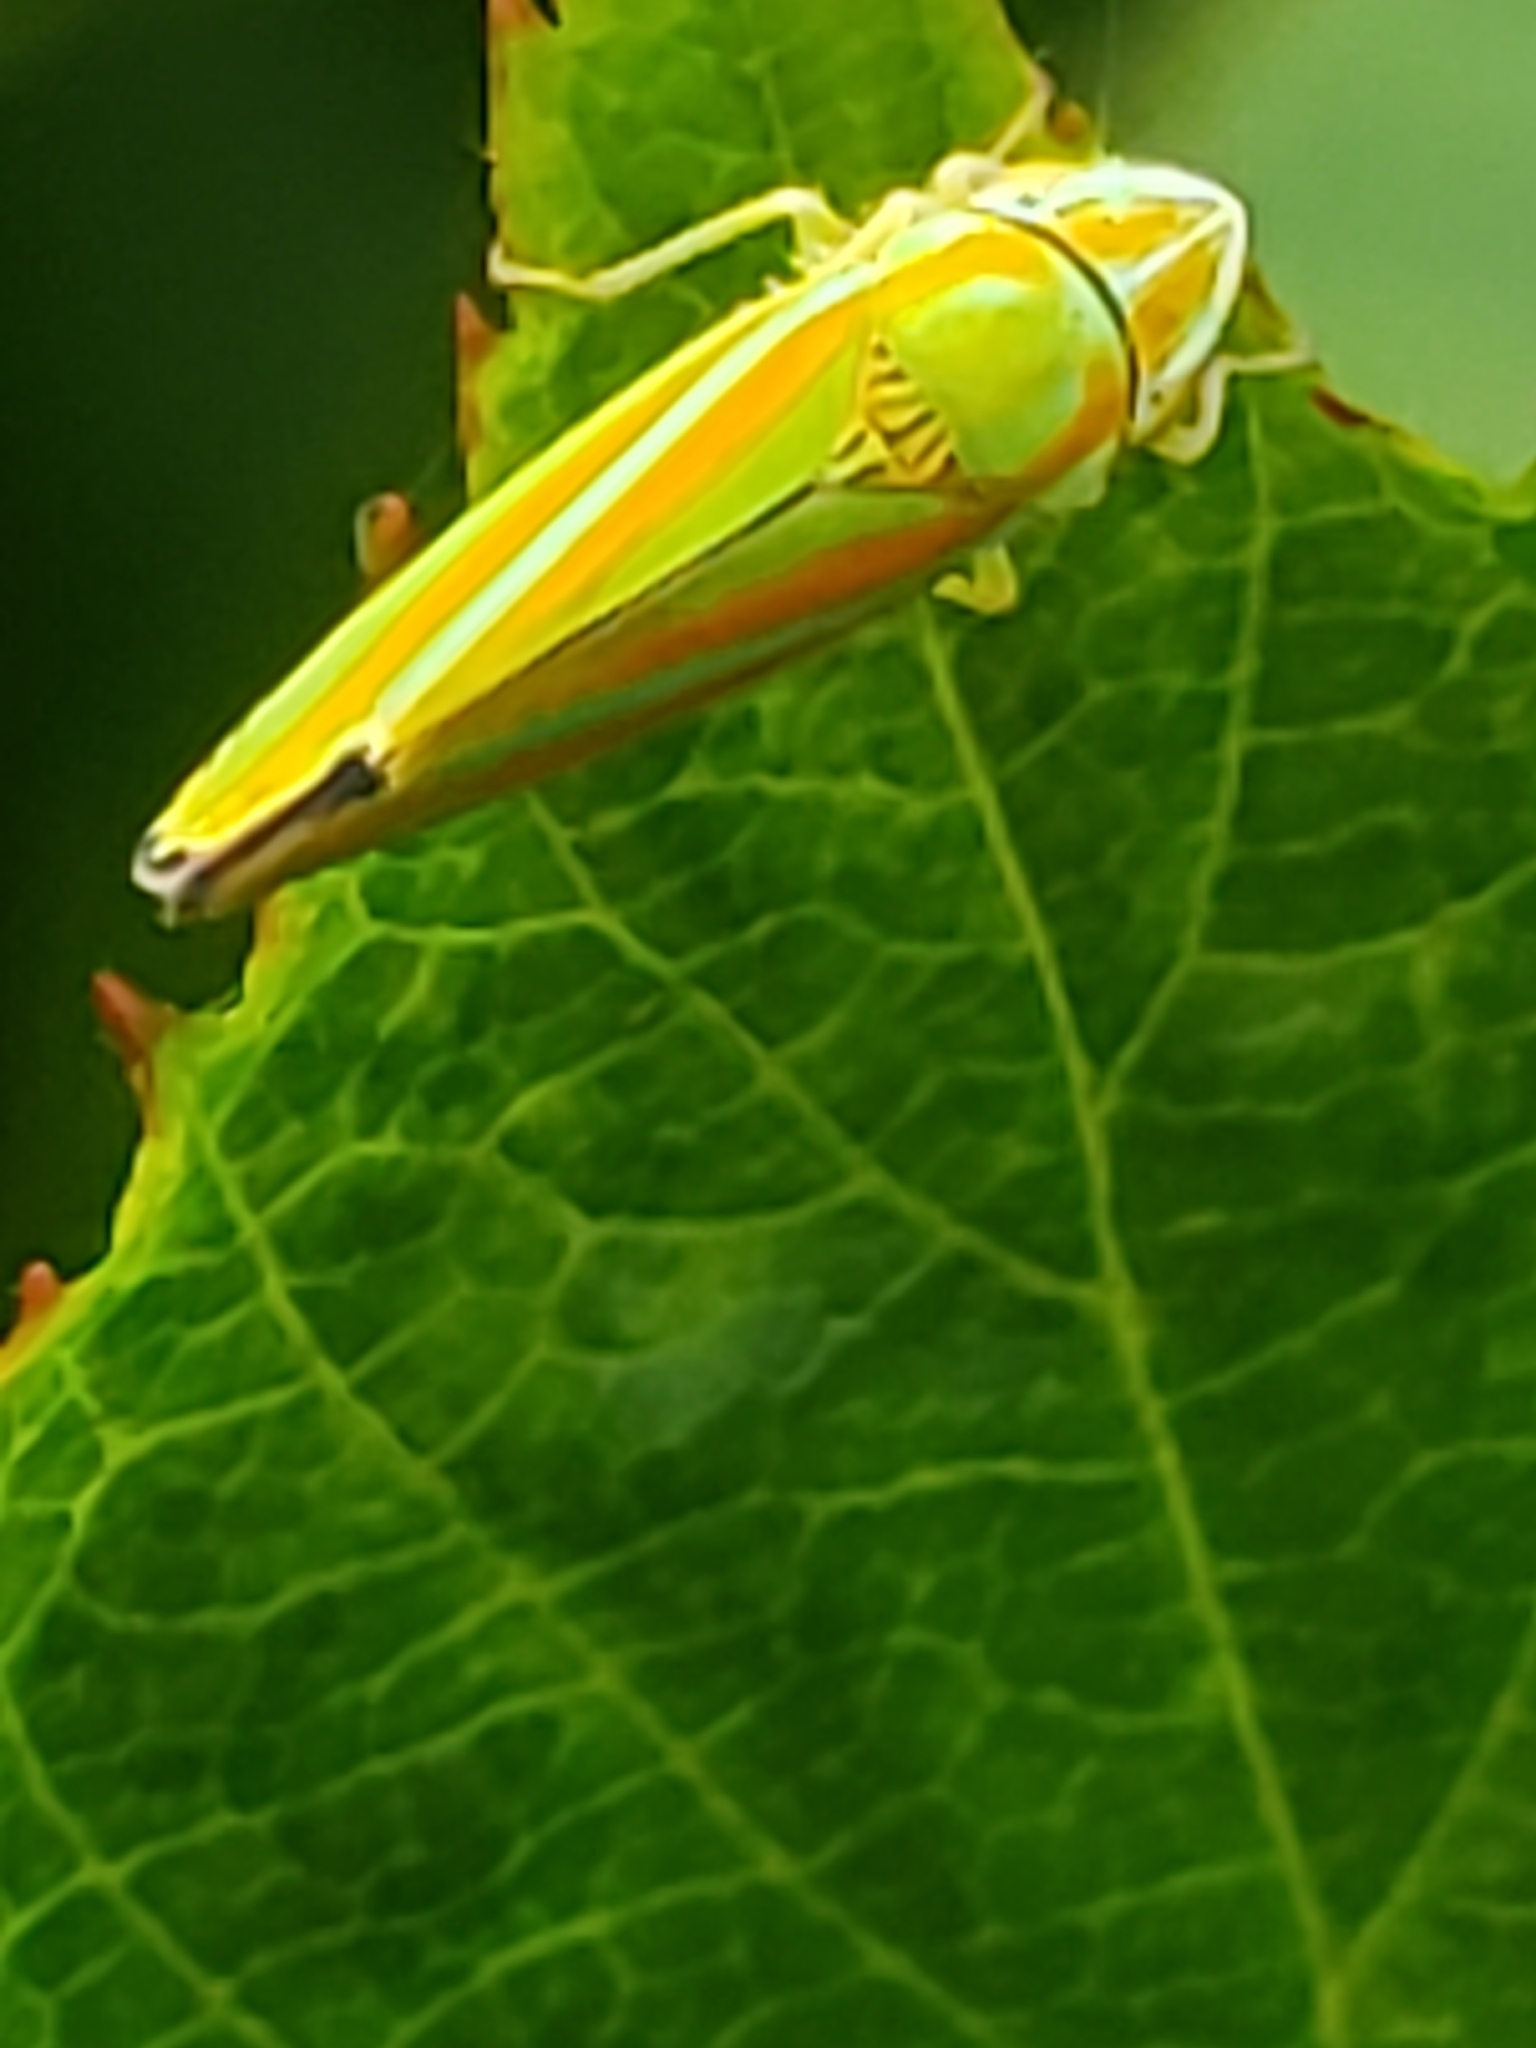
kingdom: Animalia
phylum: Arthropoda
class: Insecta
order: Hemiptera
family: Cicadellidae
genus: Graphocephala
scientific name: Graphocephala versuta
